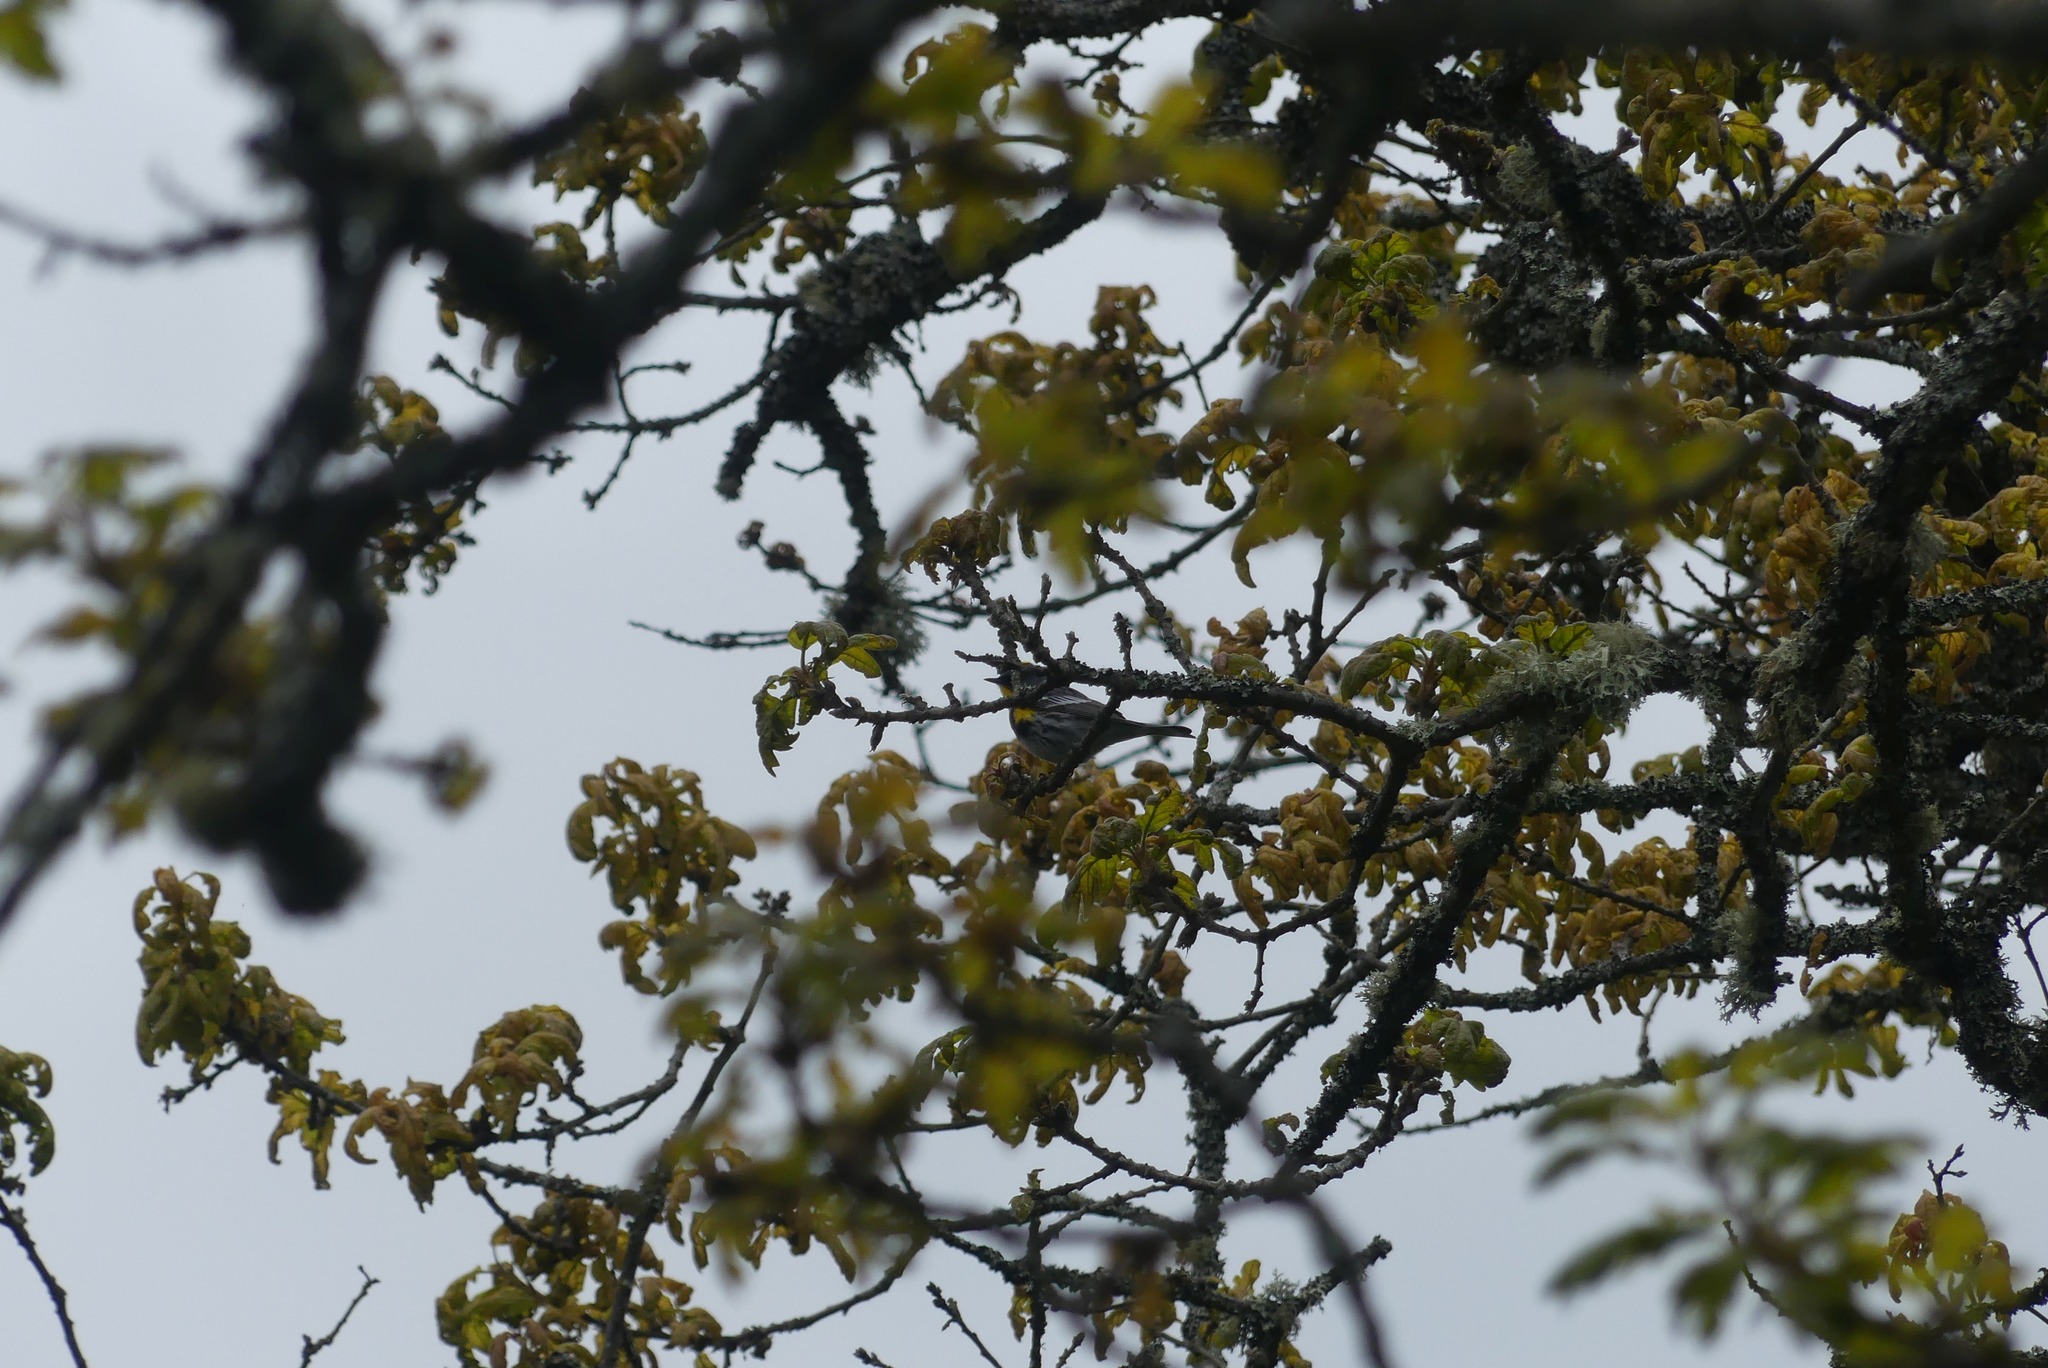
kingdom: Animalia
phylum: Chordata
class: Aves
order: Passeriformes
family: Parulidae
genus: Setophaga
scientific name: Setophaga coronata
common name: Myrtle warbler
